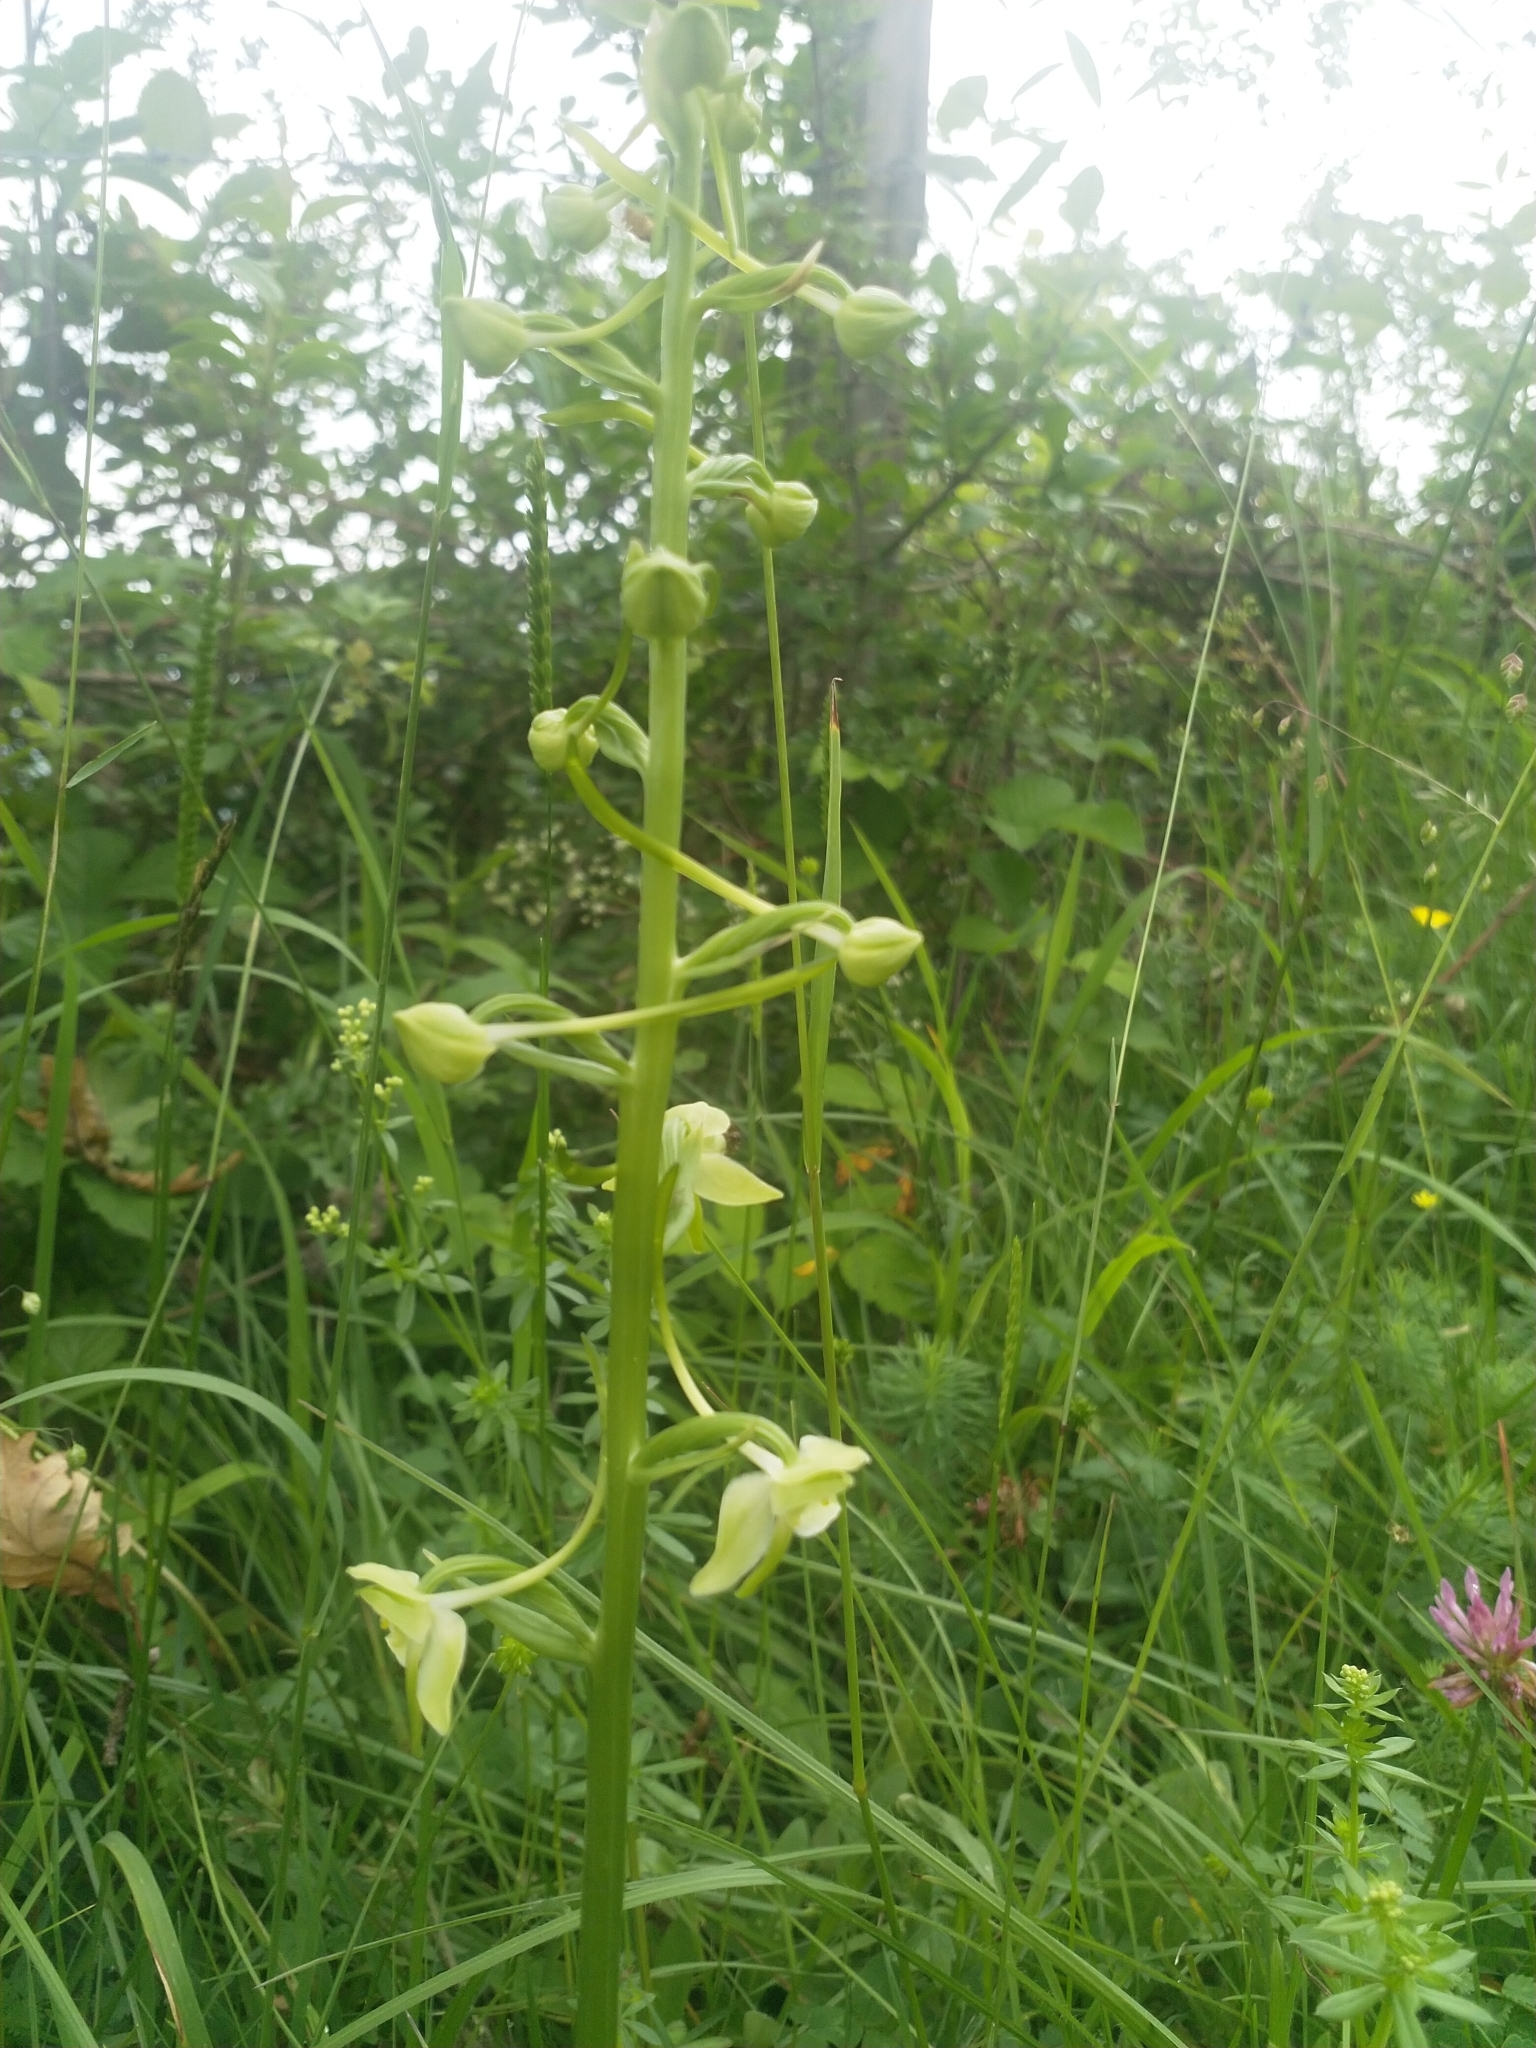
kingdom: Plantae
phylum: Tracheophyta
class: Liliopsida
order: Asparagales
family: Orchidaceae
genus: Platanthera
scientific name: Platanthera chlorantha
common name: Greater butterfly-orchid
